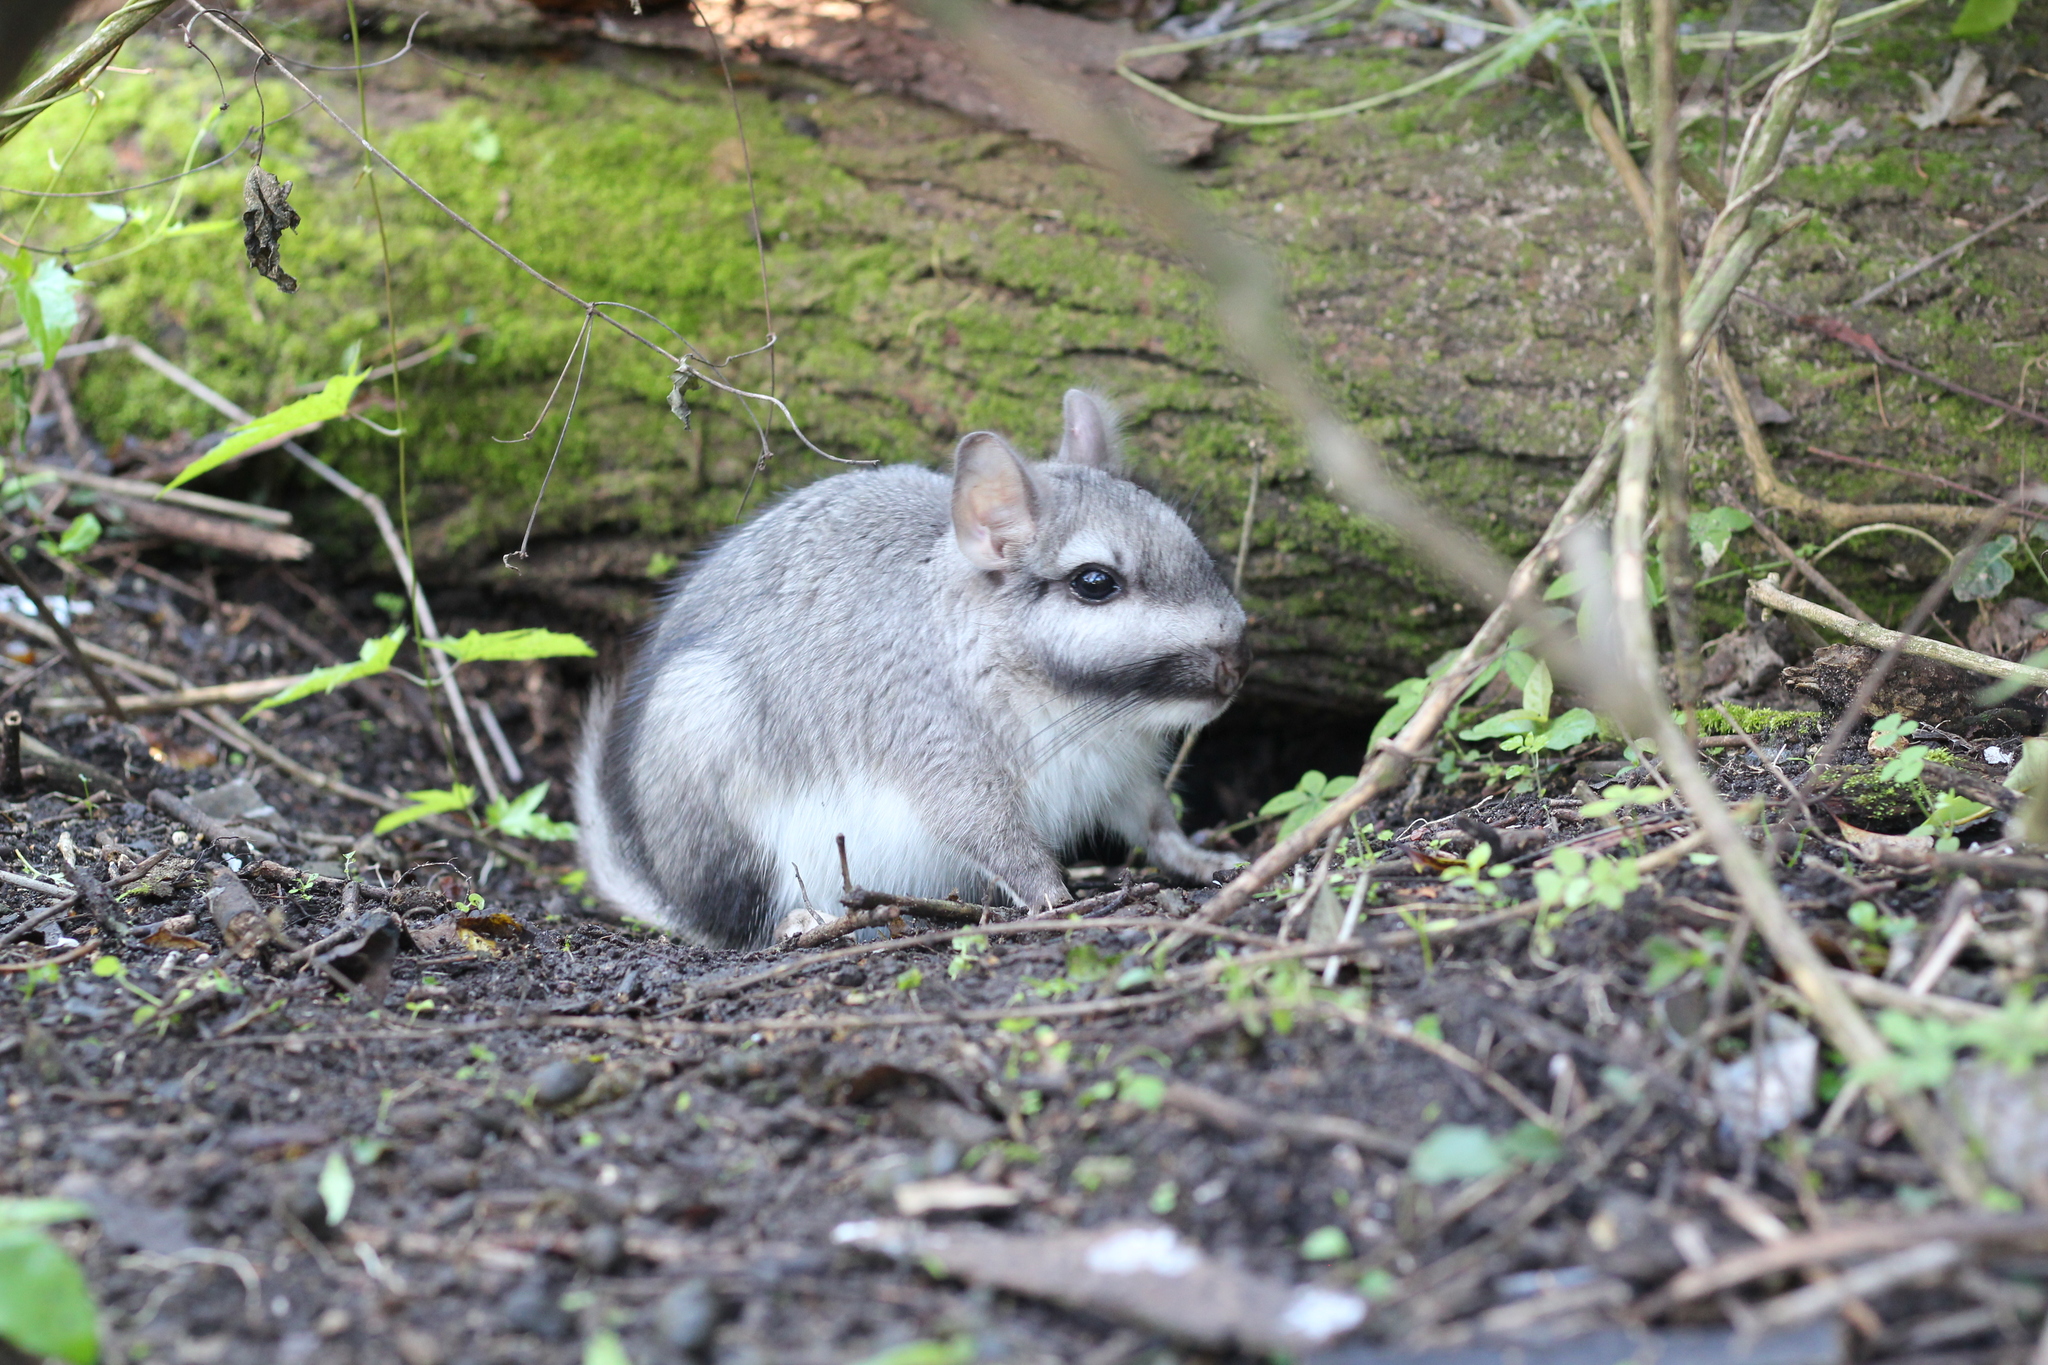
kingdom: Animalia
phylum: Chordata
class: Mammalia
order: Rodentia
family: Chinchillidae
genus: Lagostomus
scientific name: Lagostomus maximus
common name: Plains viscacha
